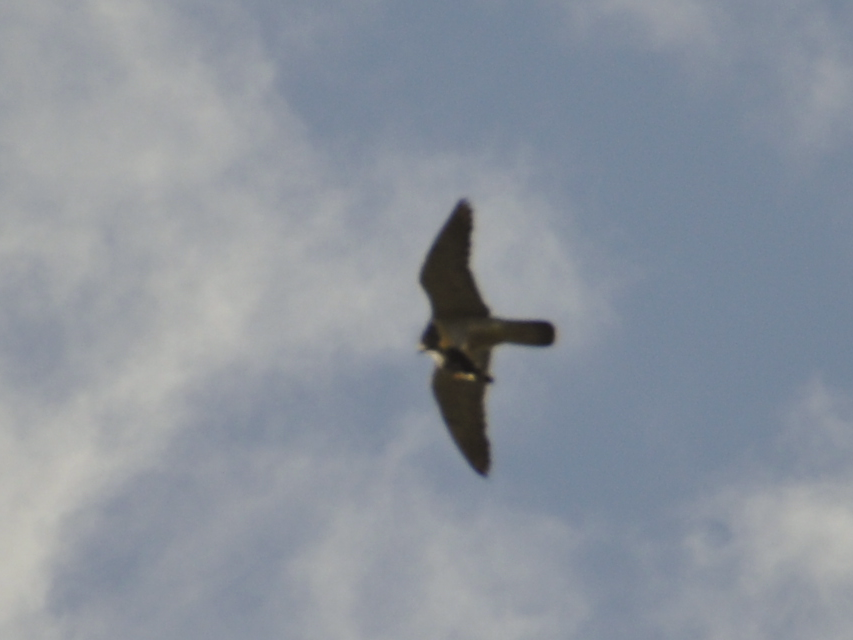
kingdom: Animalia
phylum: Chordata
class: Aves
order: Falconiformes
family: Falconidae
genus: Falco
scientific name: Falco peregrinus
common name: Peregrine falcon
